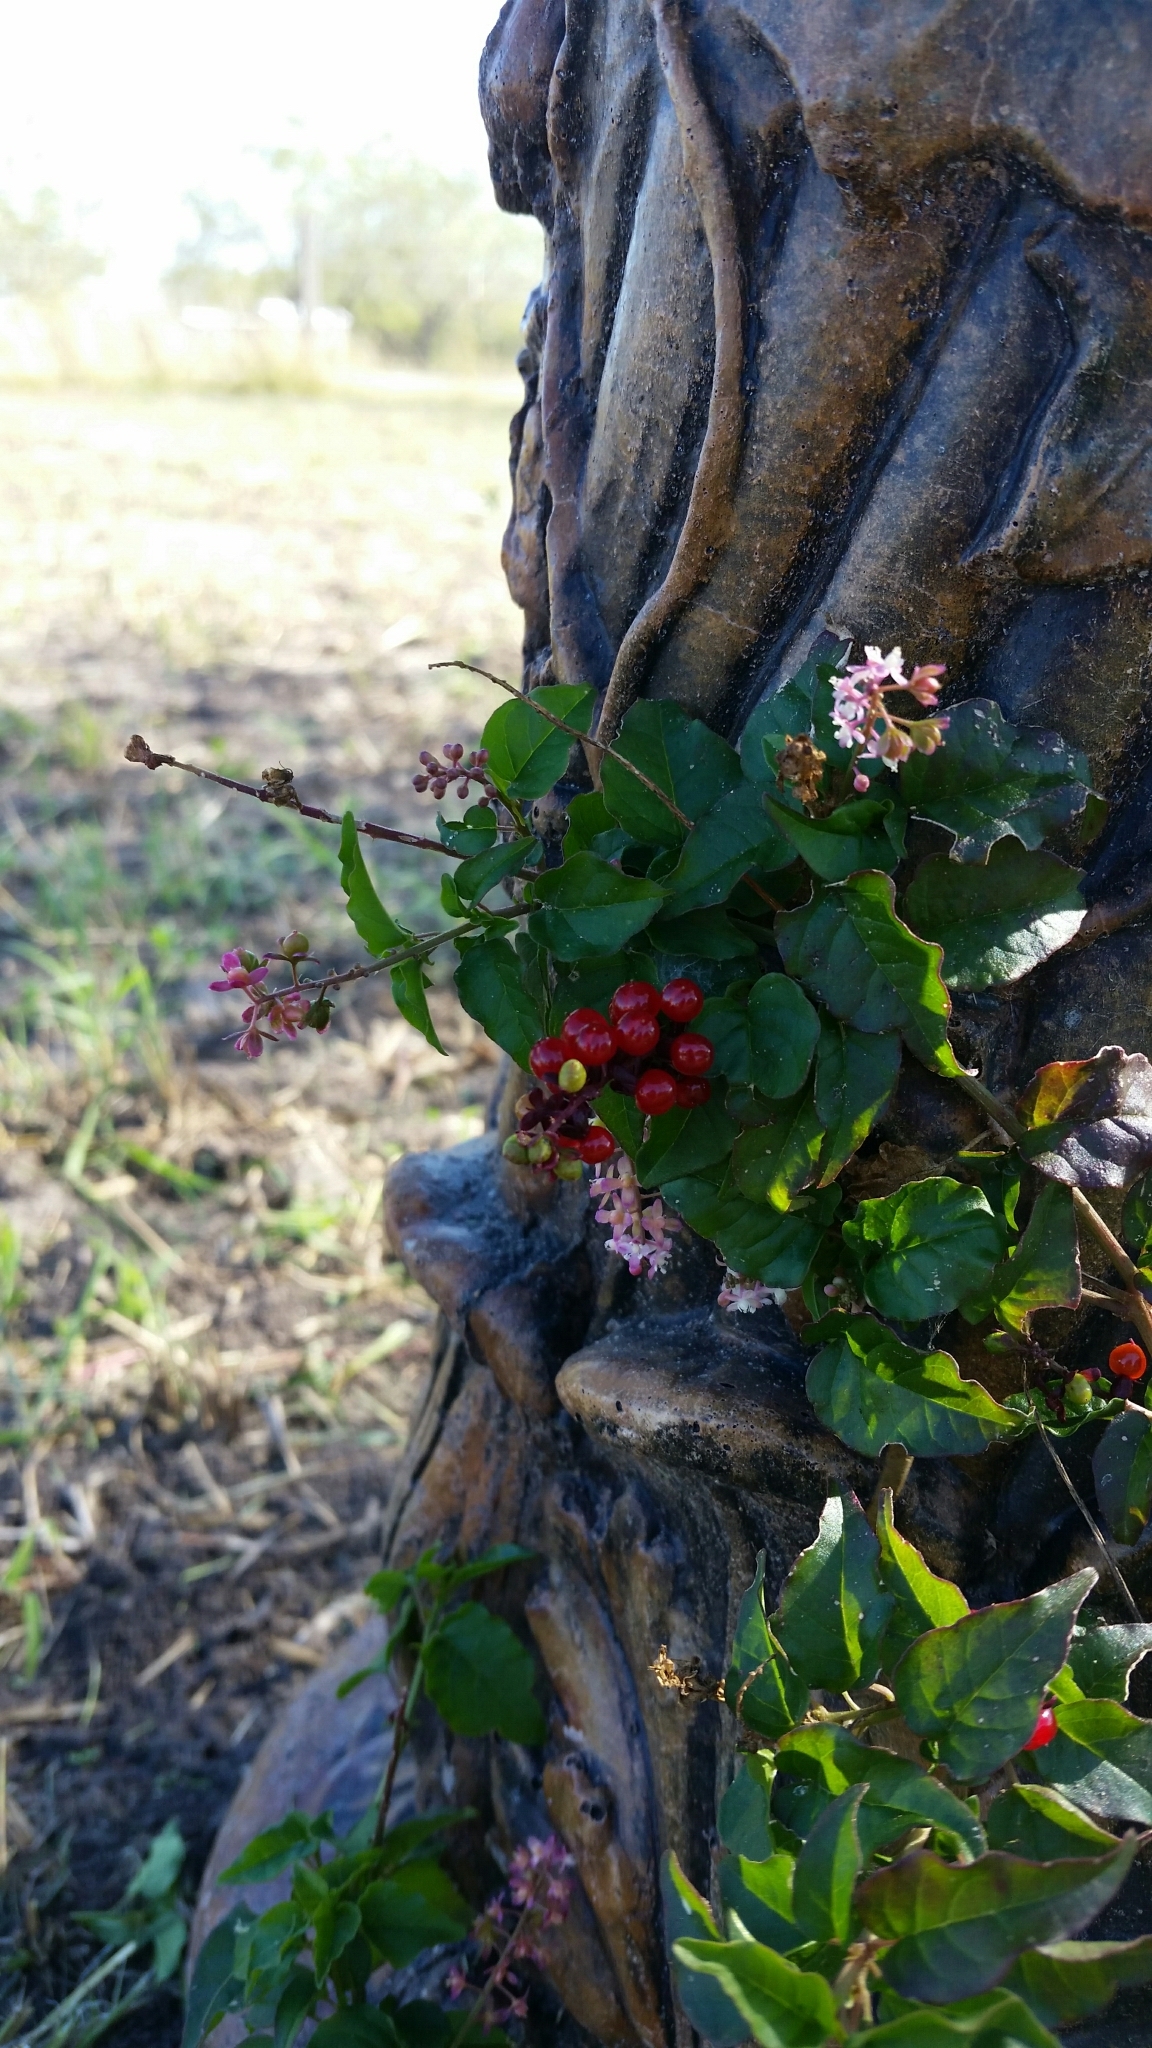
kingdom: Plantae
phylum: Tracheophyta
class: Magnoliopsida
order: Caryophyllales
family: Phytolaccaceae
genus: Rivina
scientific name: Rivina humilis
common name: Rougeplant
